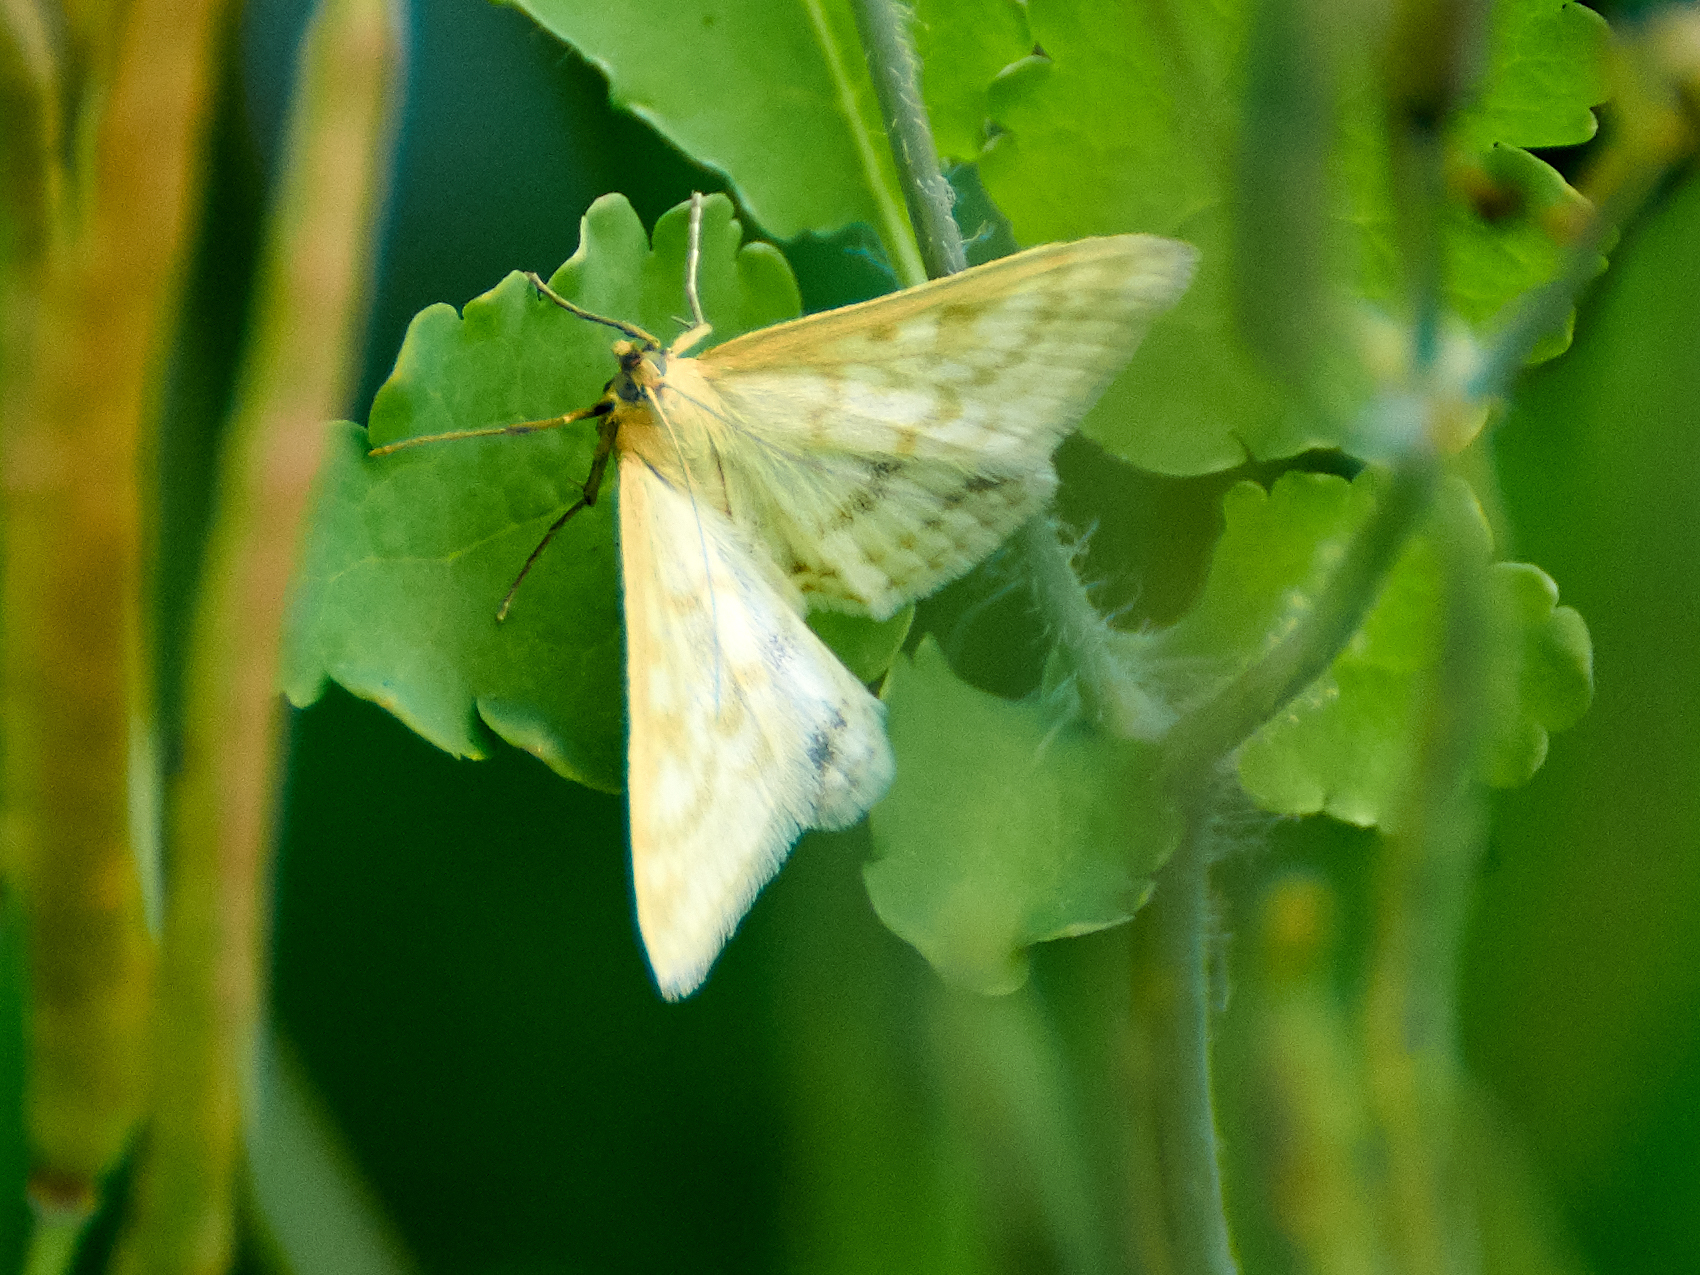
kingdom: Animalia
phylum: Arthropoda
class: Insecta
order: Lepidoptera
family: Crambidae
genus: Sitochroa
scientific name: Sitochroa verticalis
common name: Lesser pearl
